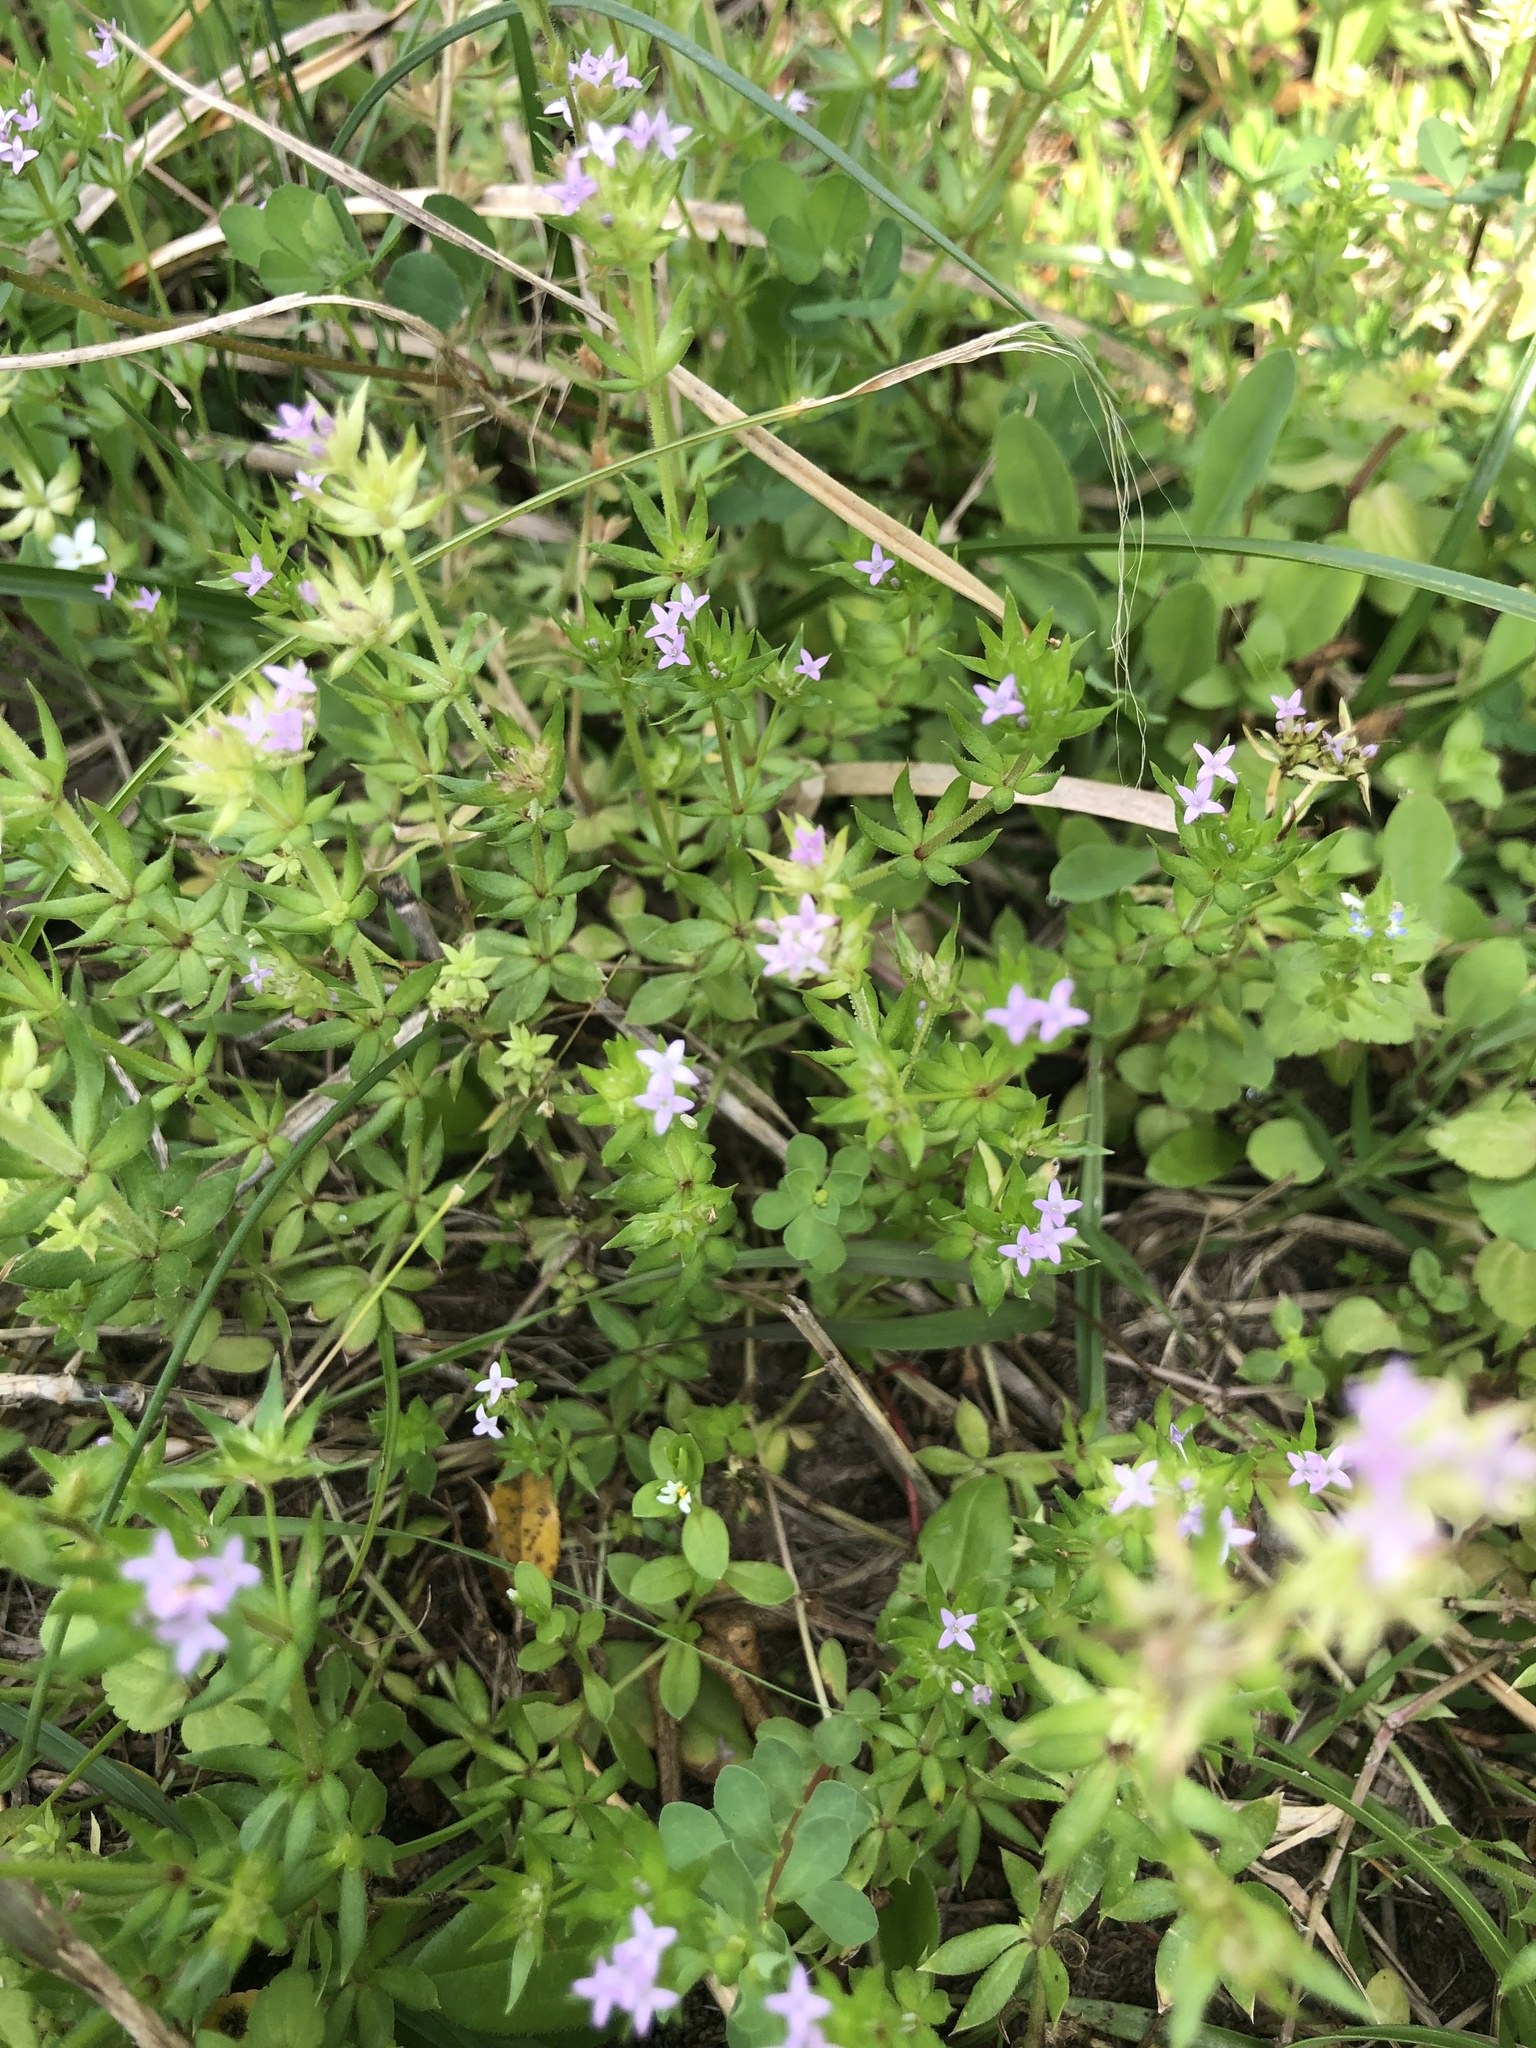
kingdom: Plantae
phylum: Tracheophyta
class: Magnoliopsida
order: Gentianales
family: Rubiaceae
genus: Sherardia
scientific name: Sherardia arvensis
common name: Field madder
